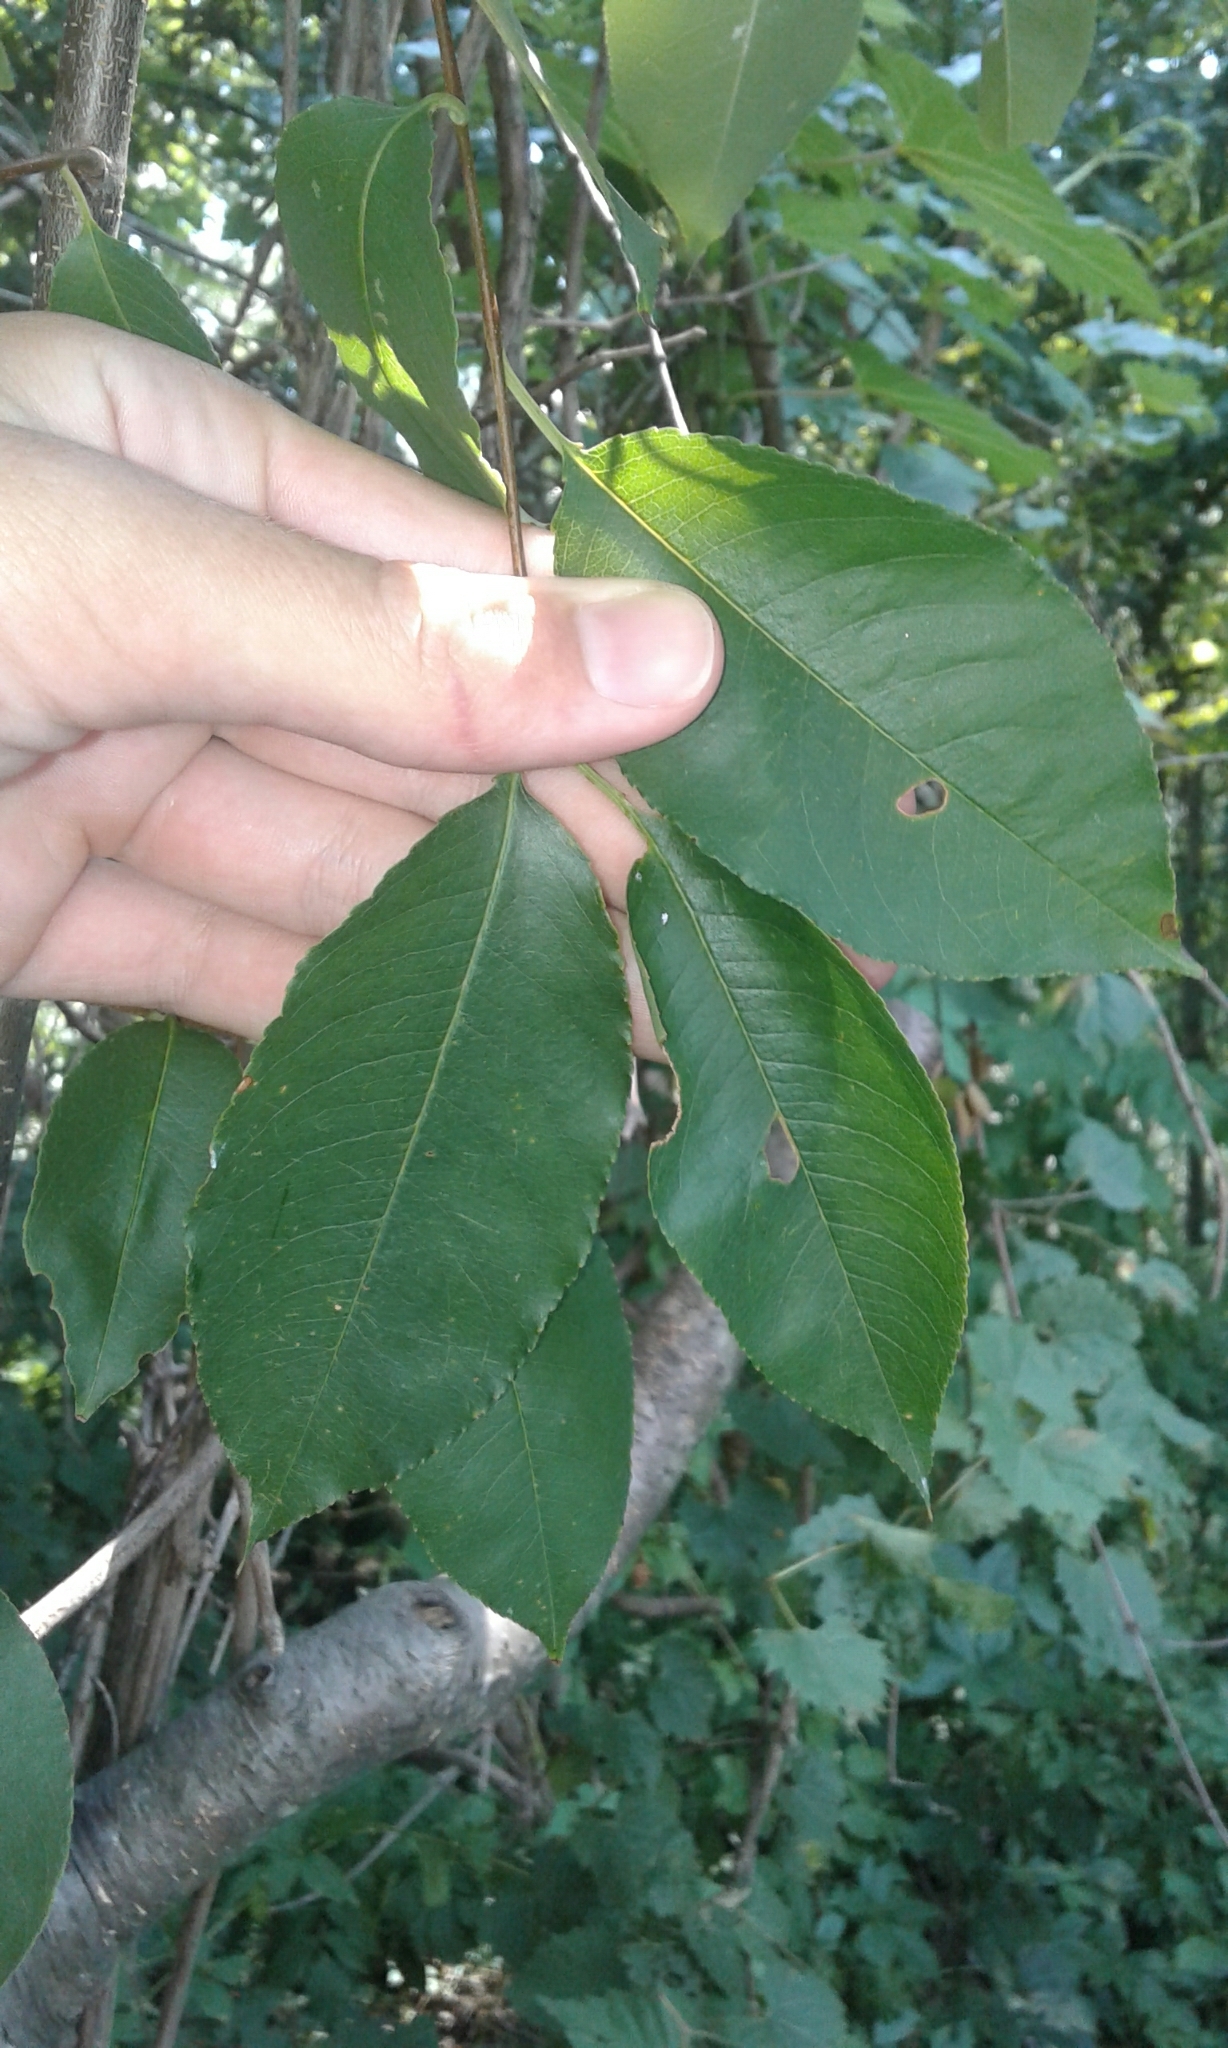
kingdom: Plantae
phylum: Tracheophyta
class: Magnoliopsida
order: Rosales
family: Rosaceae
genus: Prunus
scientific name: Prunus serotina
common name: Black cherry
